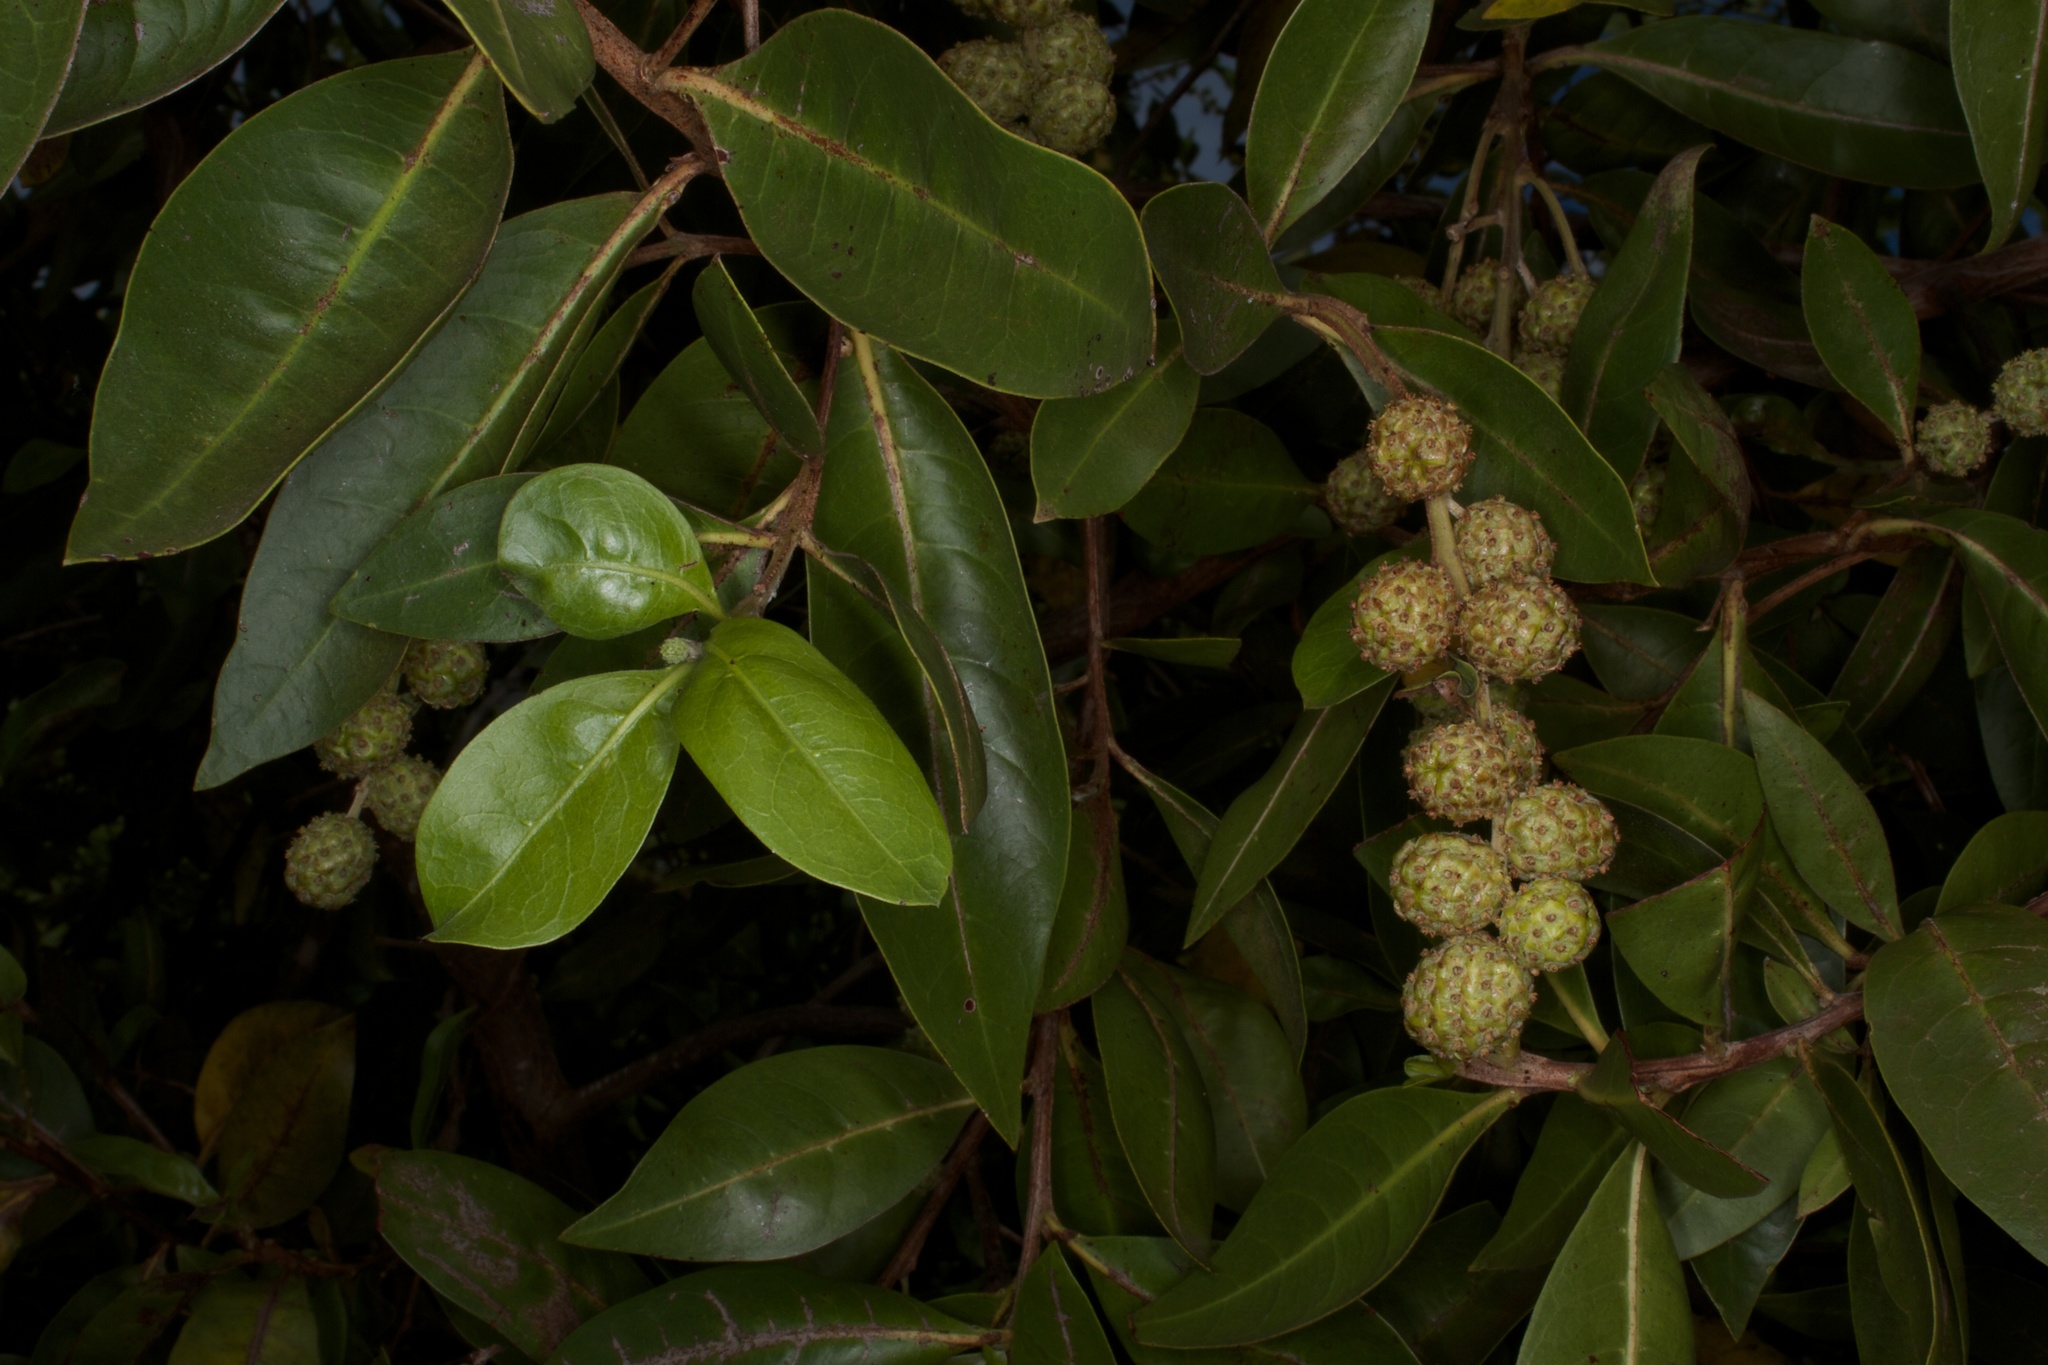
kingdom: Plantae
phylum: Tracheophyta
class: Magnoliopsida
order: Myrtales
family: Combretaceae
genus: Conocarpus
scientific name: Conocarpus erectus
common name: Button mangrove
